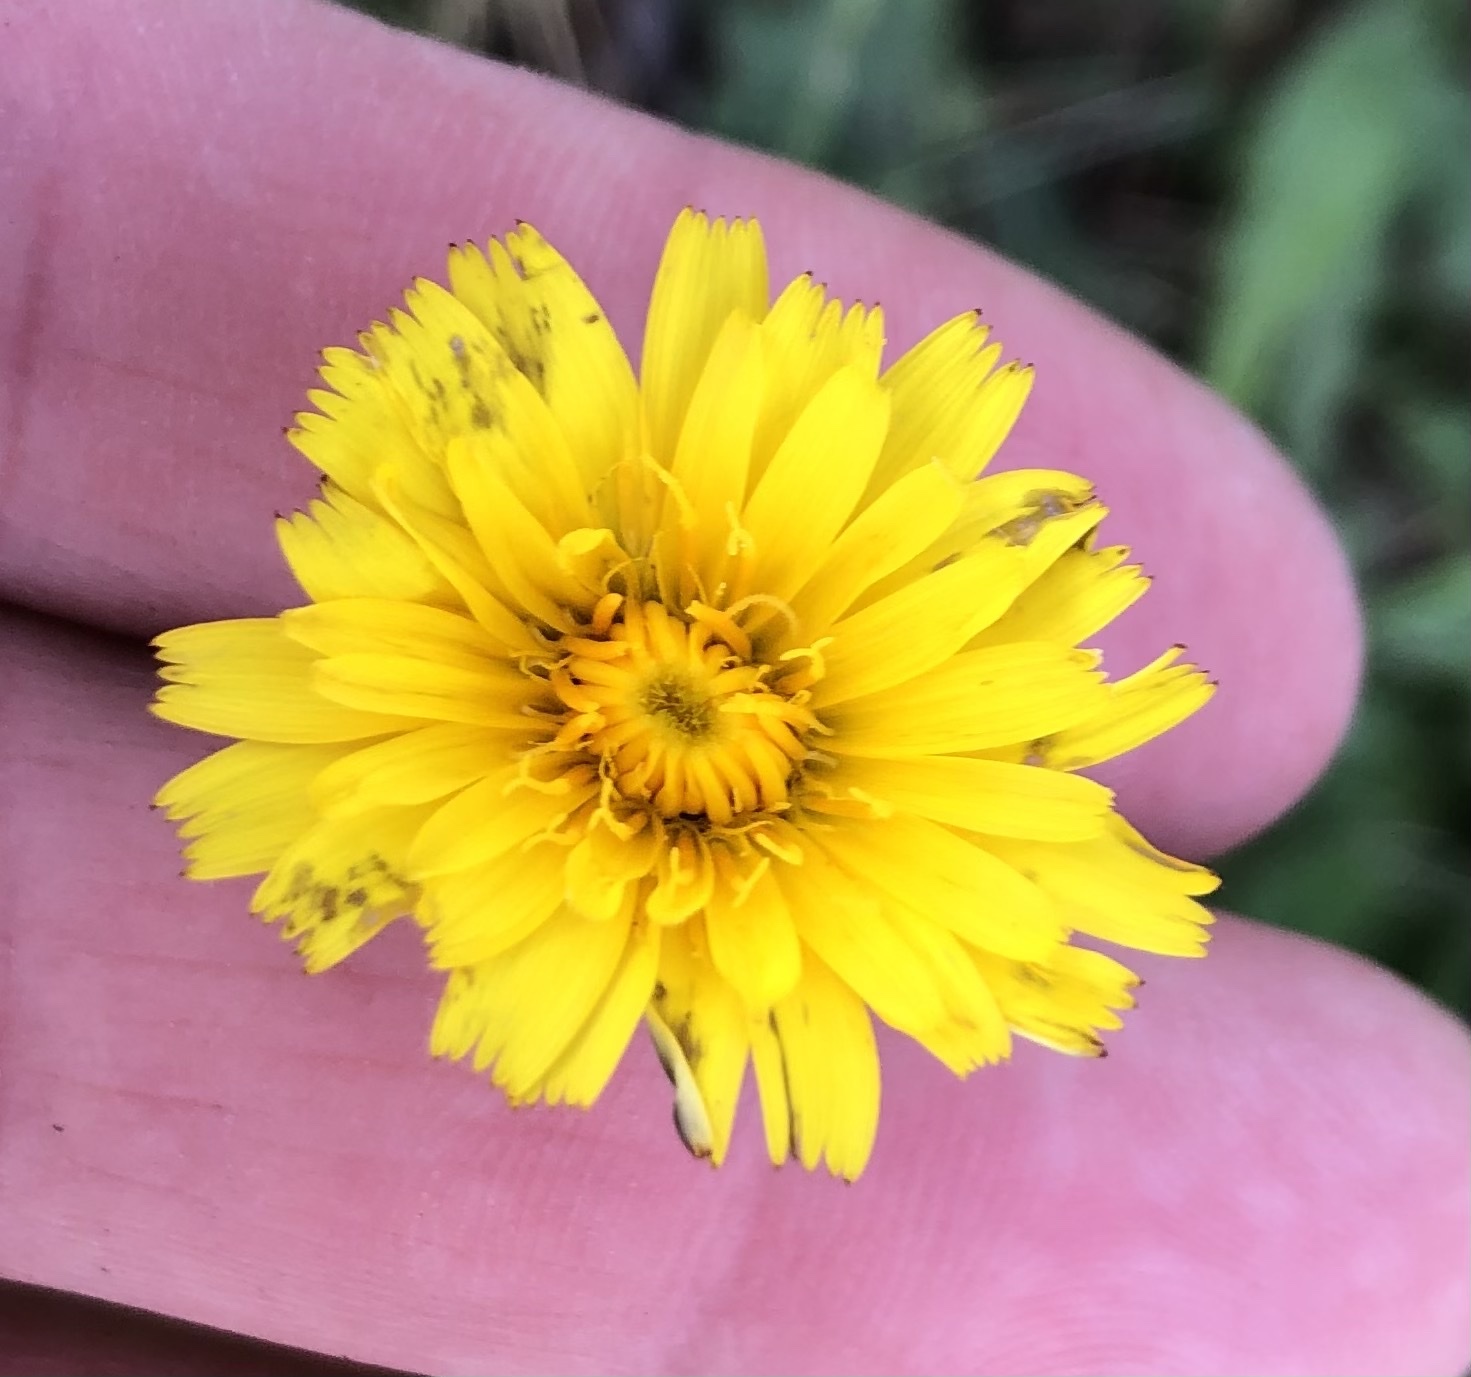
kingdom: Plantae
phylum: Tracheophyta
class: Magnoliopsida
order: Asterales
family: Asteraceae
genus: Hypochaeris
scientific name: Hypochaeris radicata
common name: Flatweed
